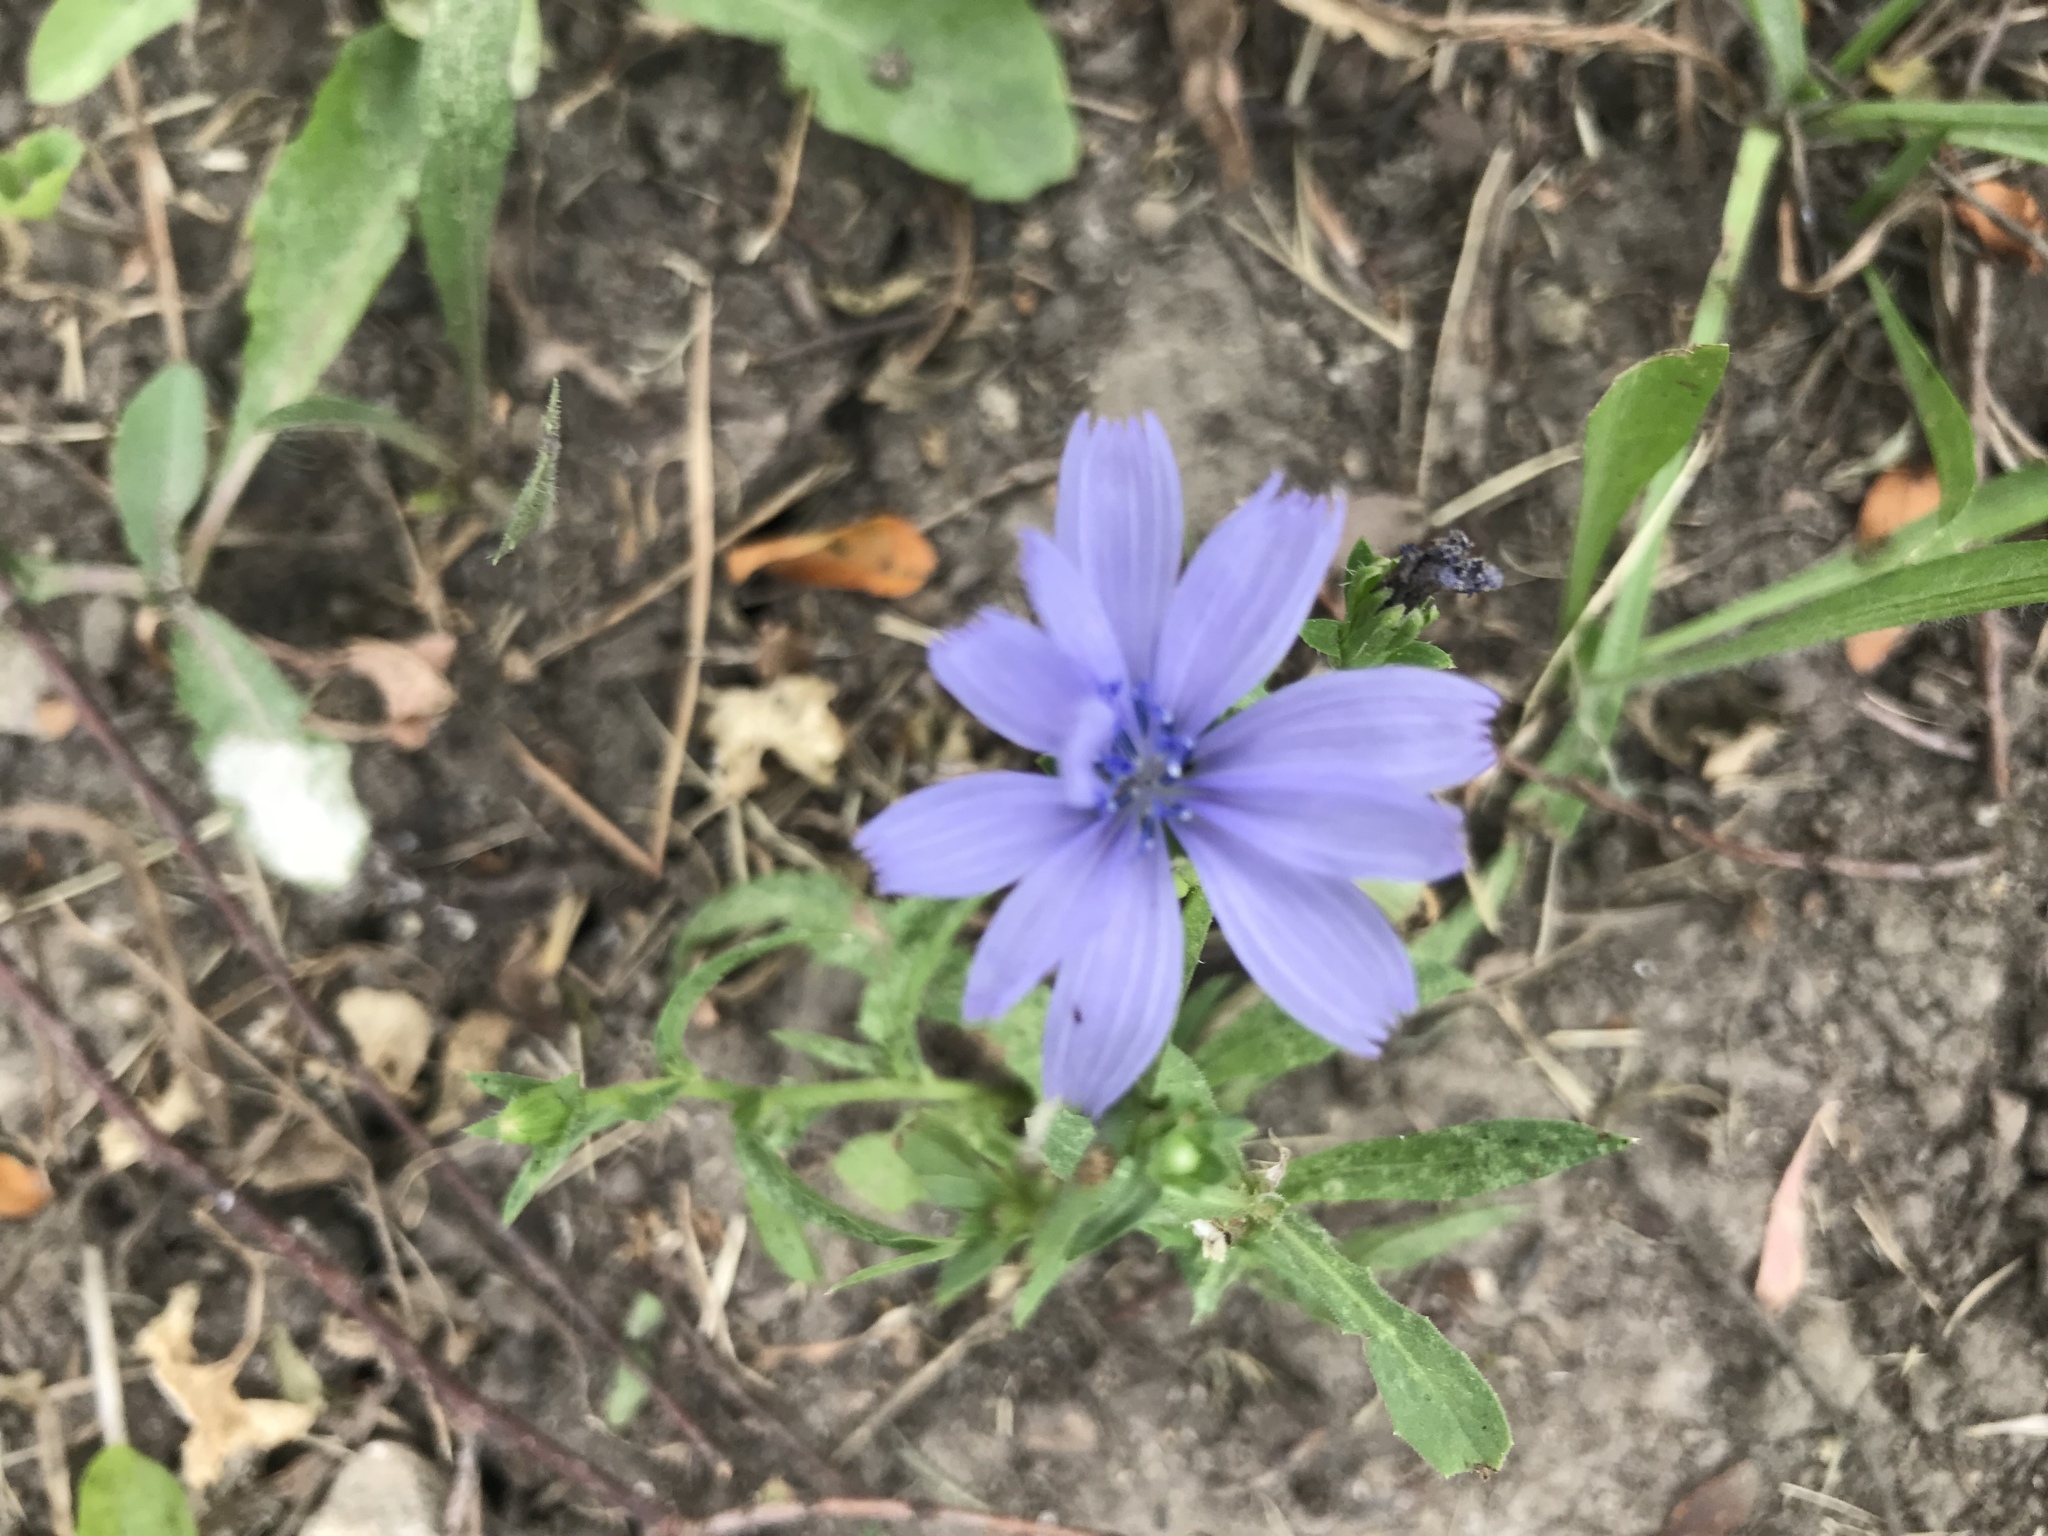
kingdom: Plantae
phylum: Tracheophyta
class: Magnoliopsida
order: Asterales
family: Asteraceae
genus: Cichorium
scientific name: Cichorium intybus
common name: Chicory
